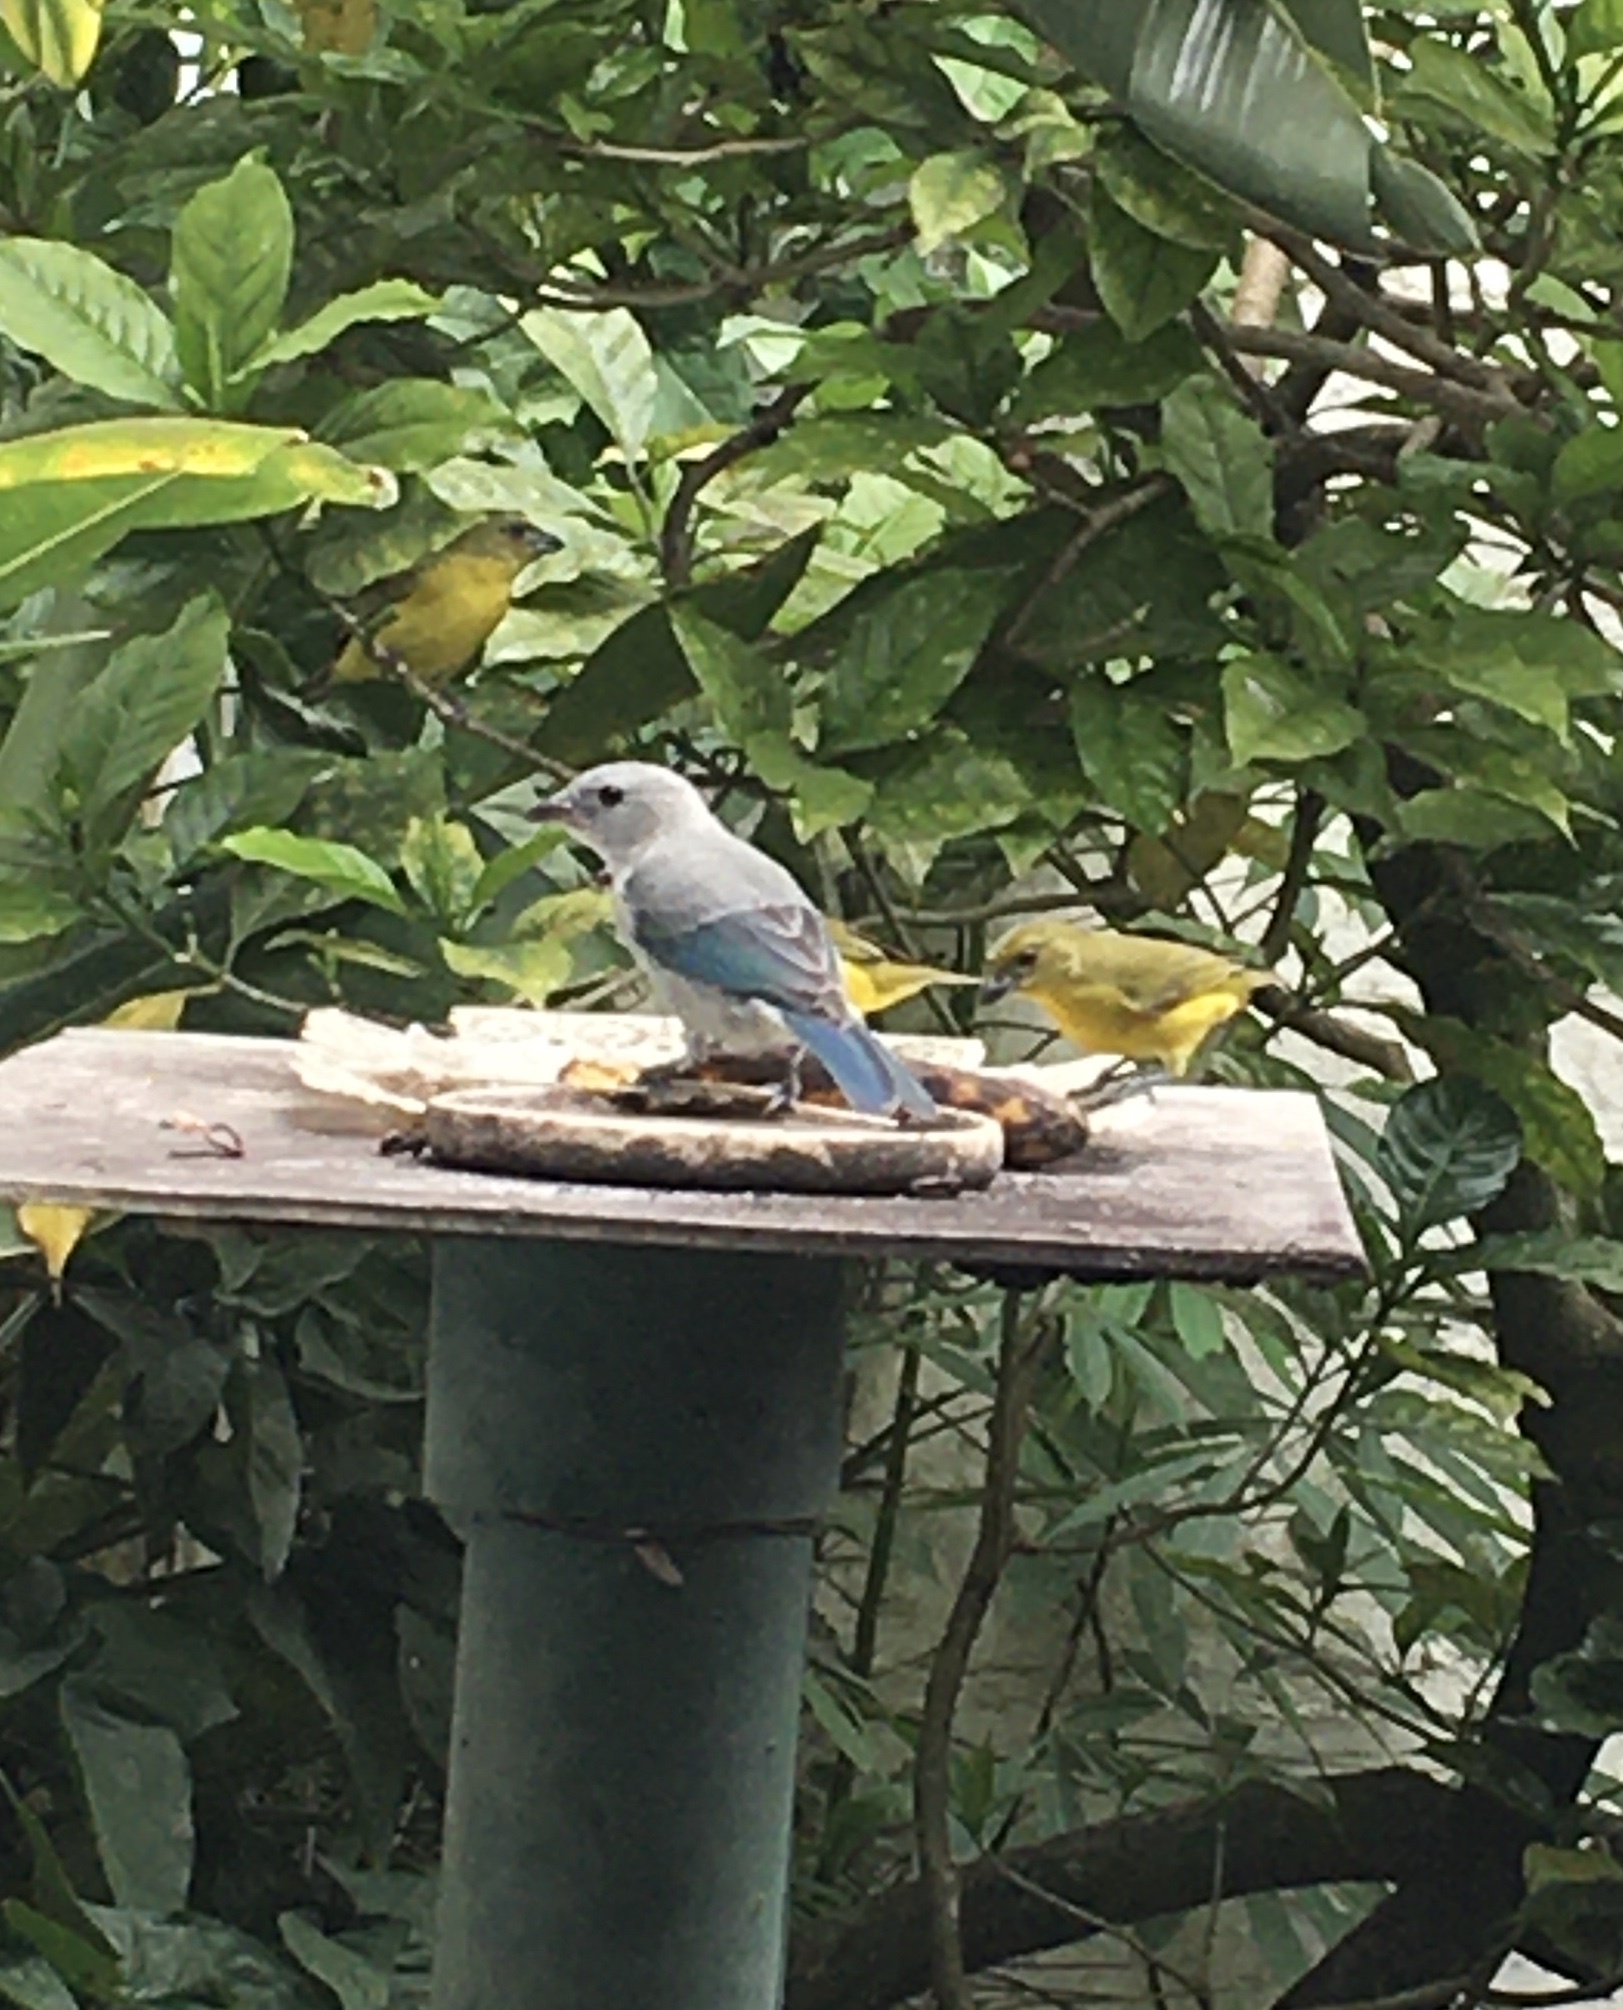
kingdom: Animalia
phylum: Chordata
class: Aves
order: Passeriformes
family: Thraupidae
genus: Thraupis
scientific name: Thraupis episcopus
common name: Blue-grey tanager
